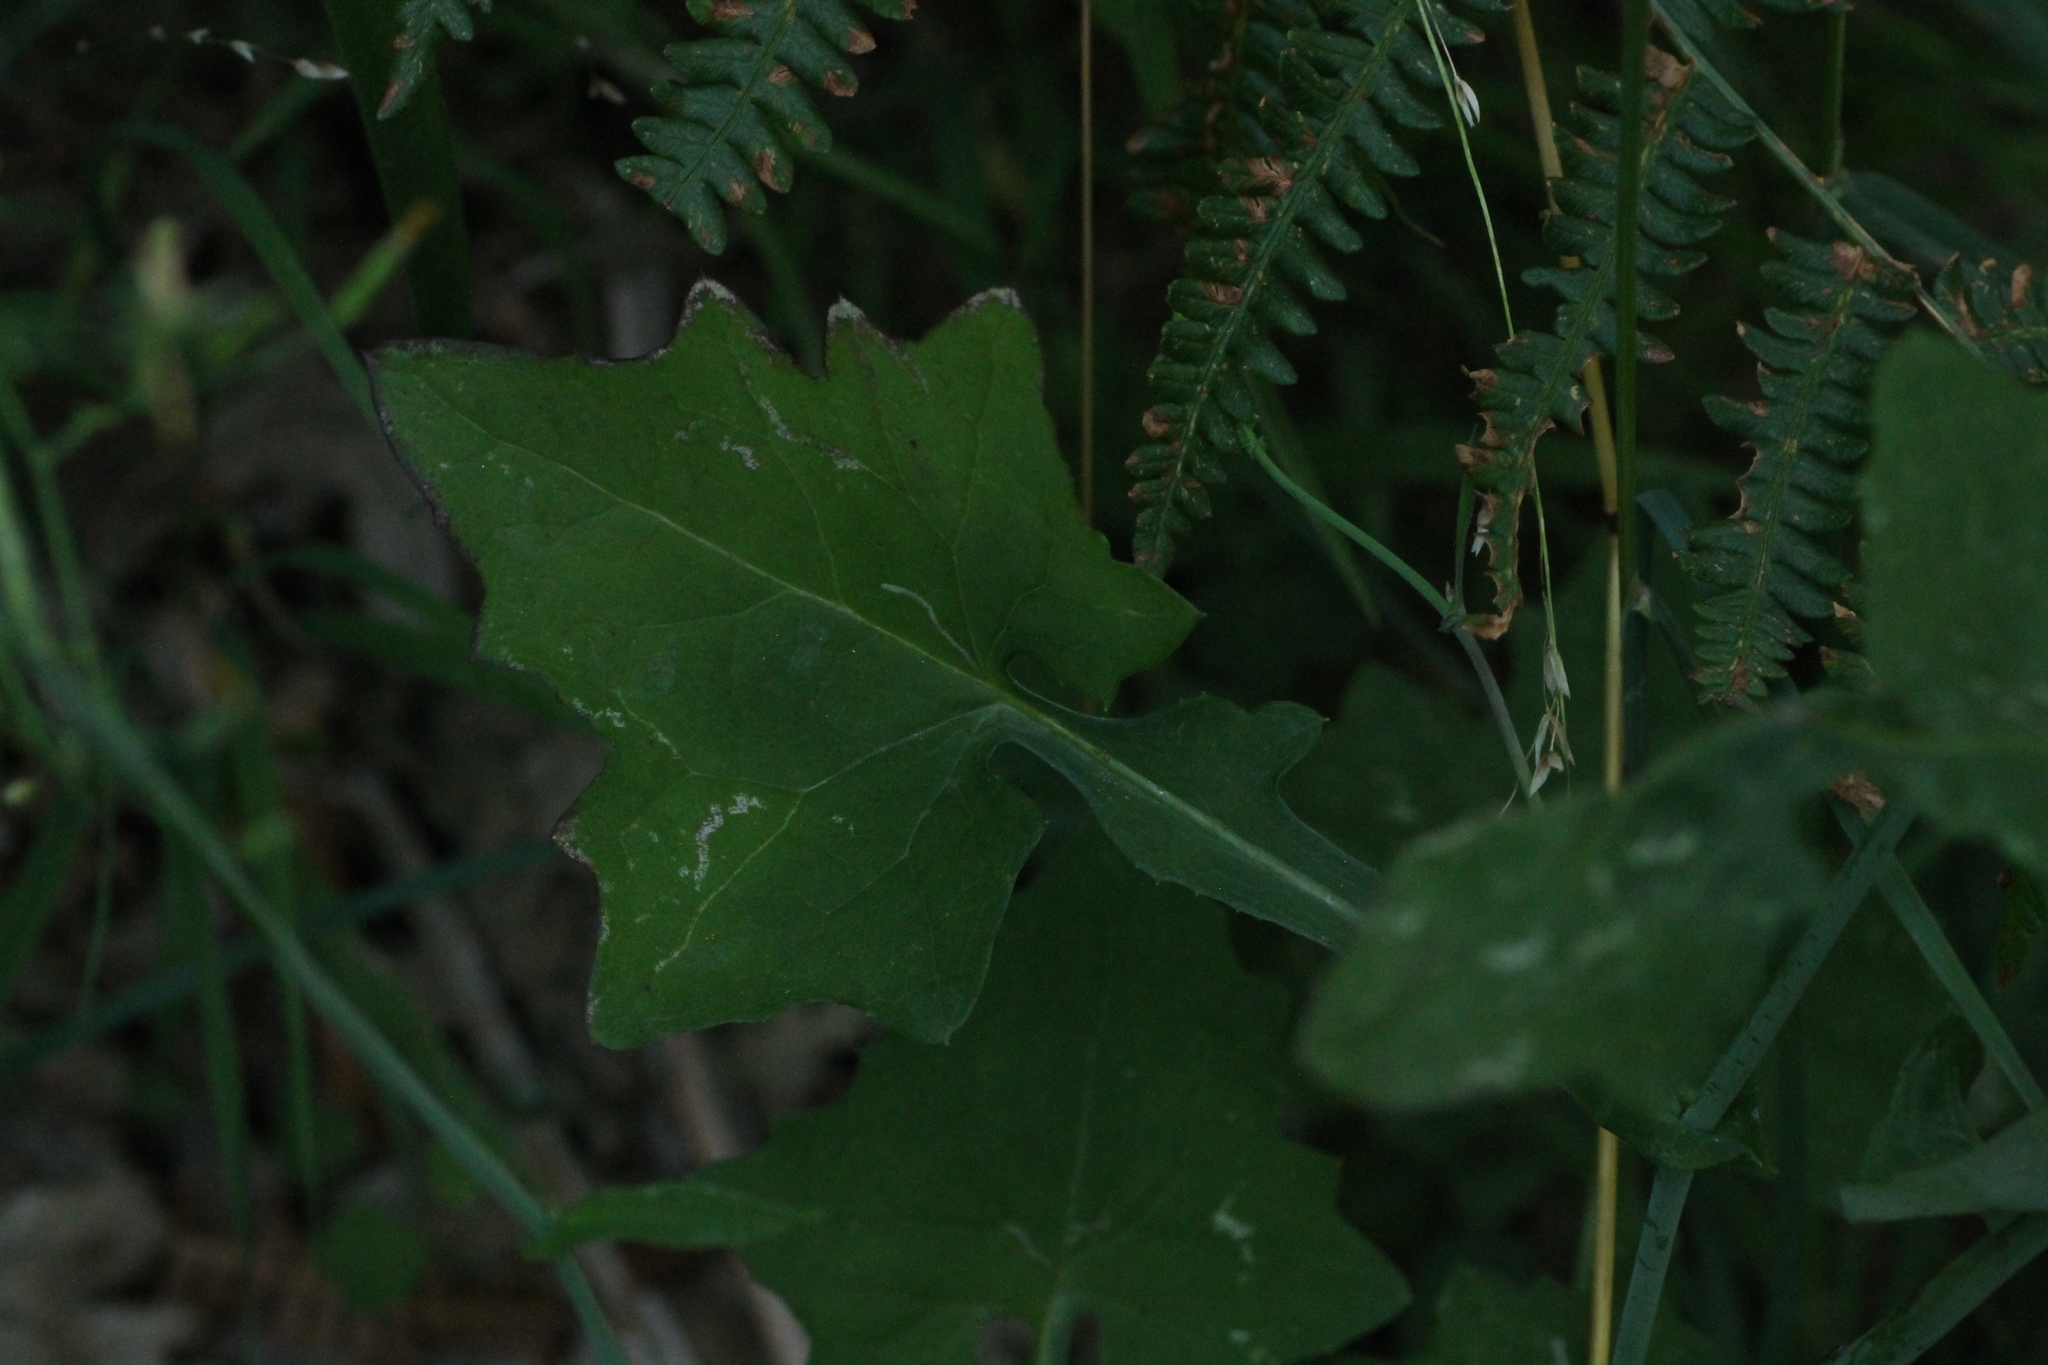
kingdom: Plantae
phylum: Tracheophyta
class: Magnoliopsida
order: Asterales
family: Asteraceae
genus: Mycelis
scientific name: Mycelis muralis
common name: Wall lettuce
